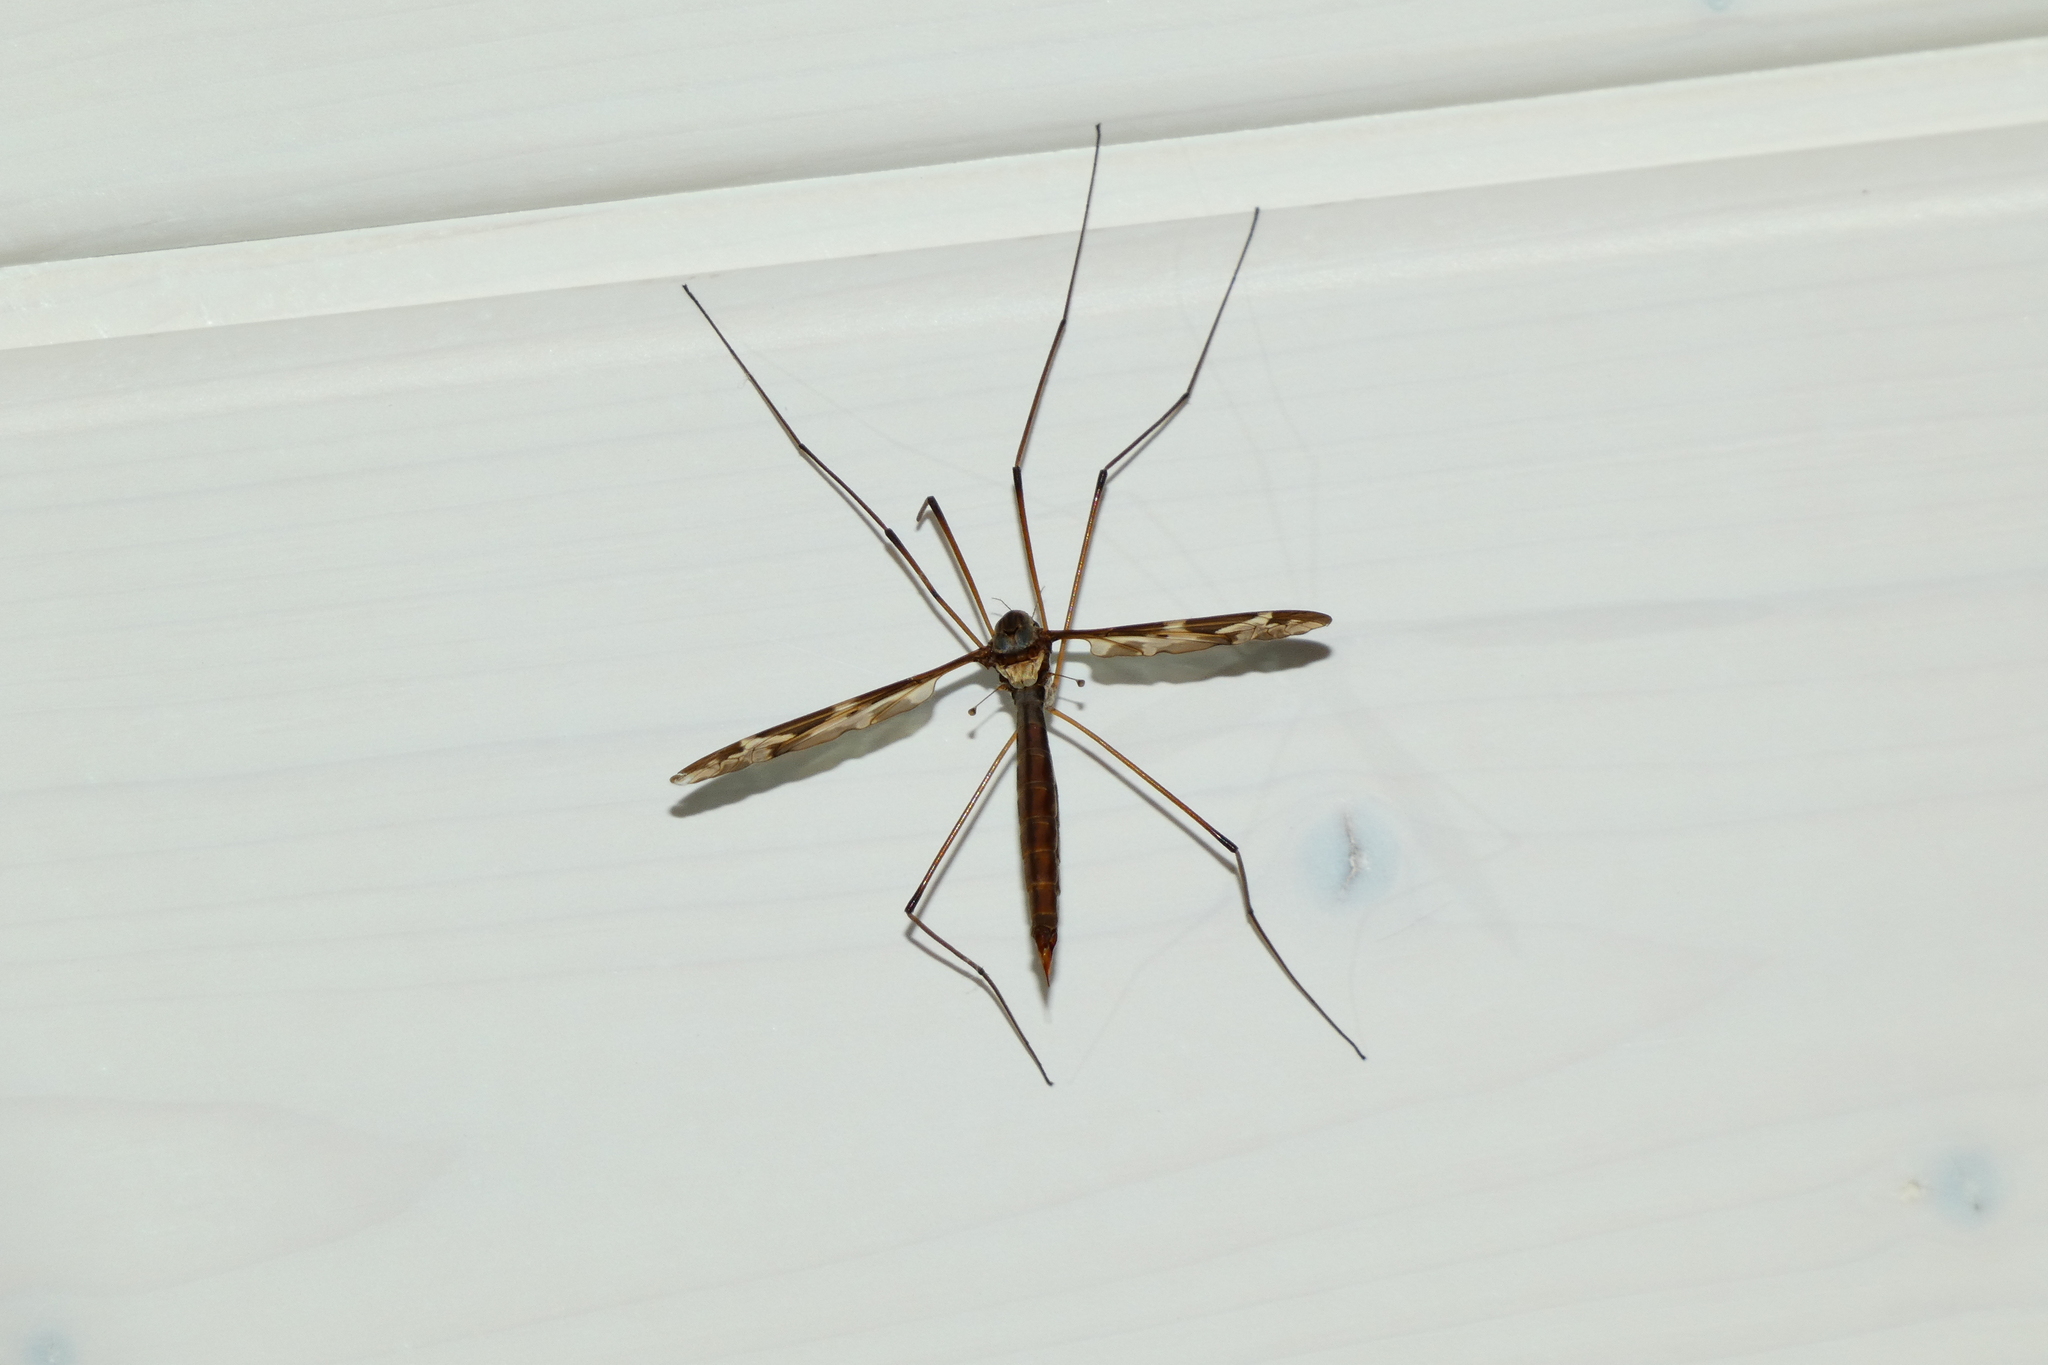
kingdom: Animalia
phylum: Arthropoda
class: Insecta
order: Diptera
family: Tipulidae
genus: Tipula
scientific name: Tipula maxima
